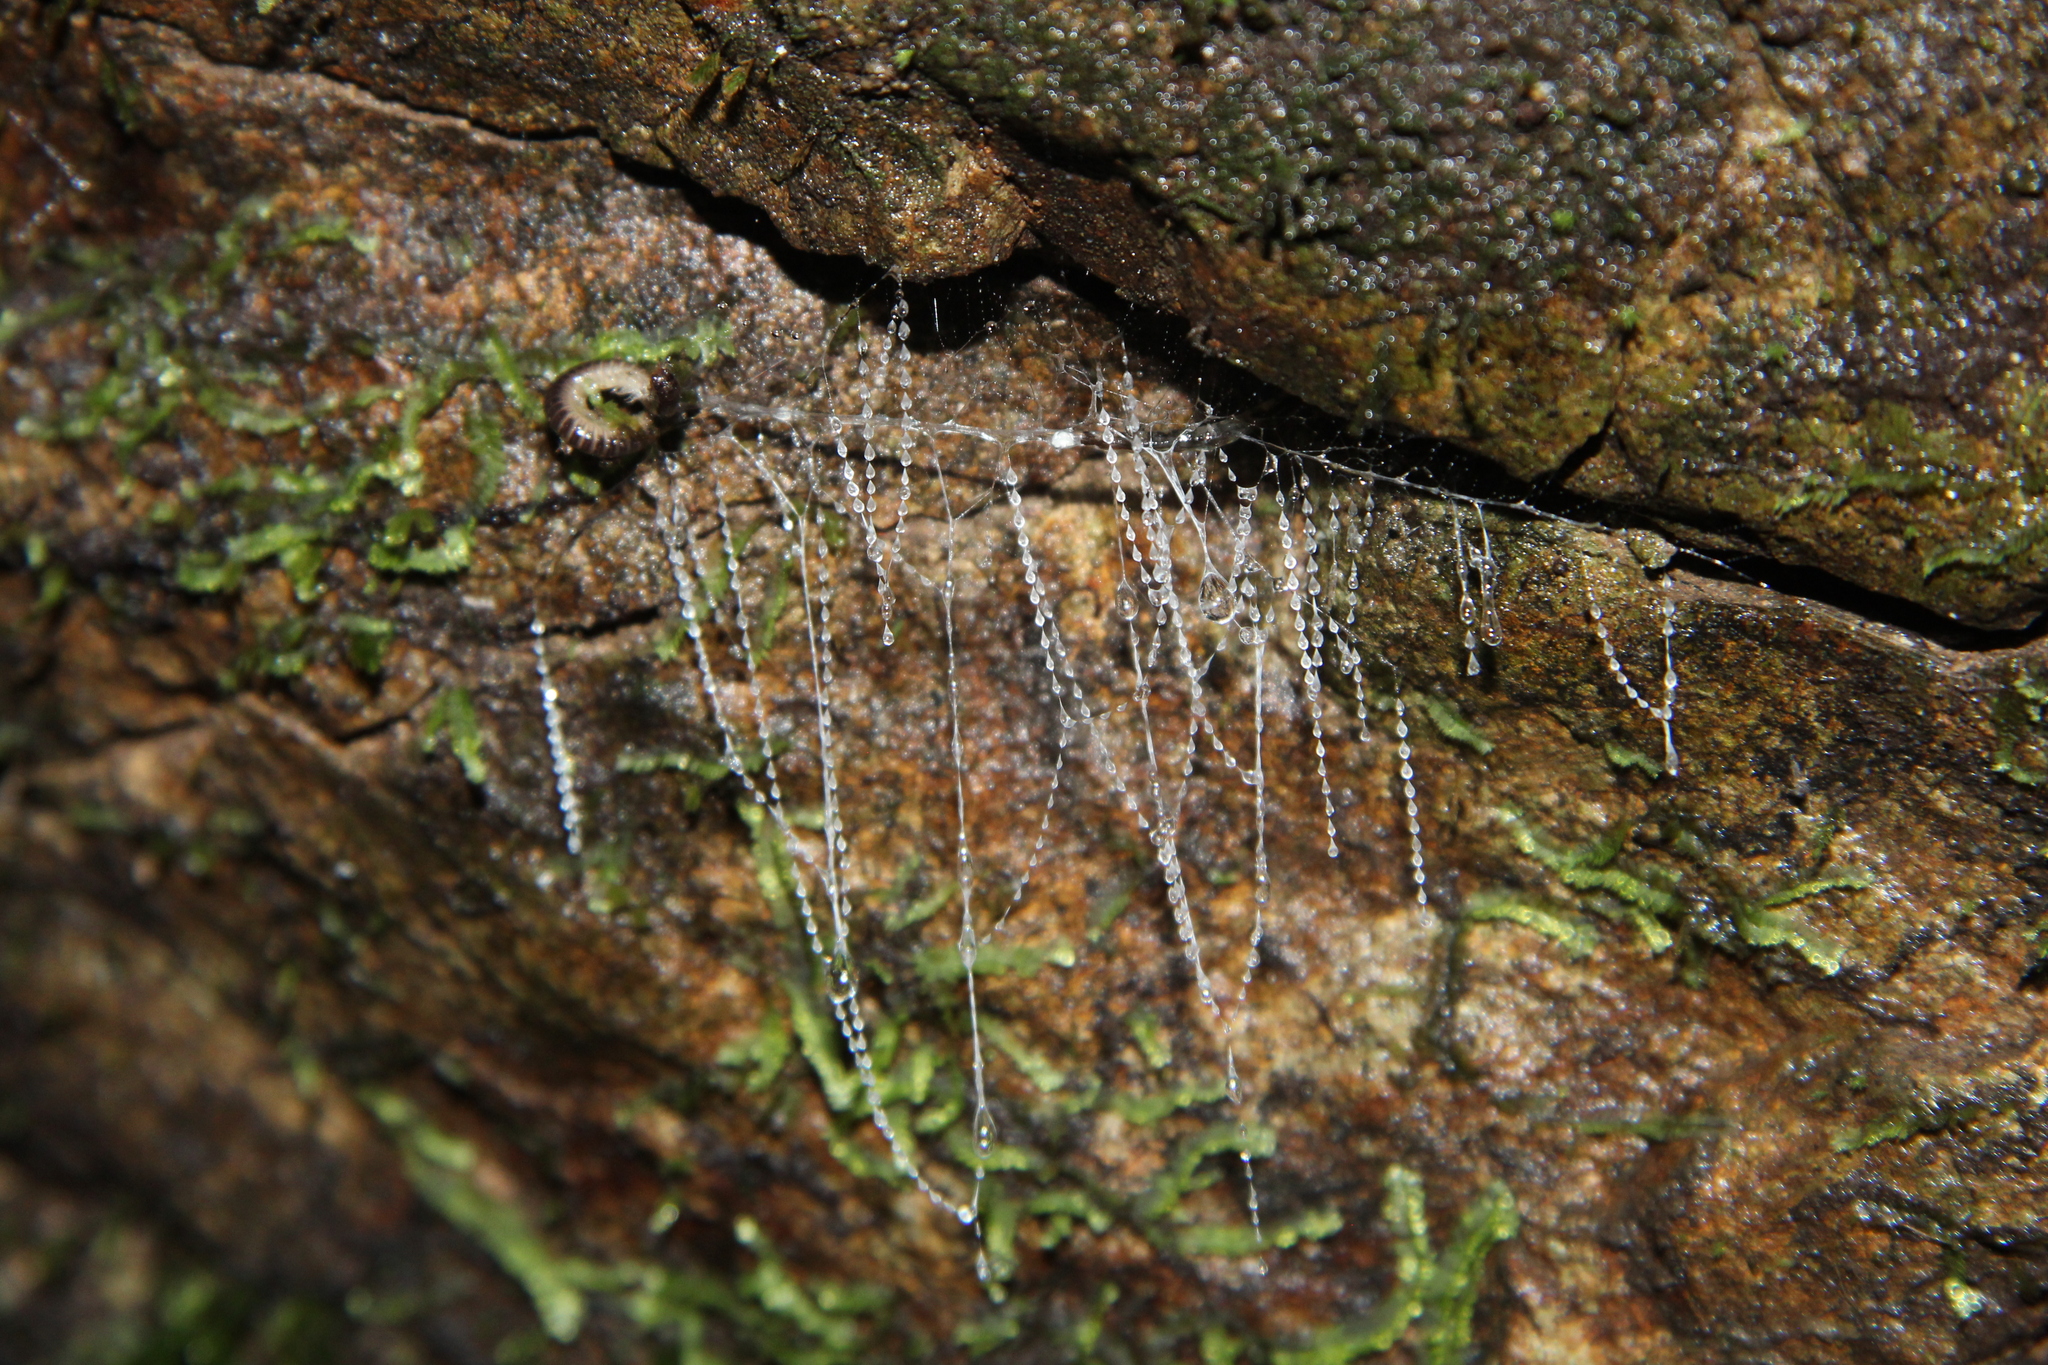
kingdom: Animalia
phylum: Arthropoda
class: Insecta
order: Diptera
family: Keroplatidae
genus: Arachnocampa
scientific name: Arachnocampa luminosa
